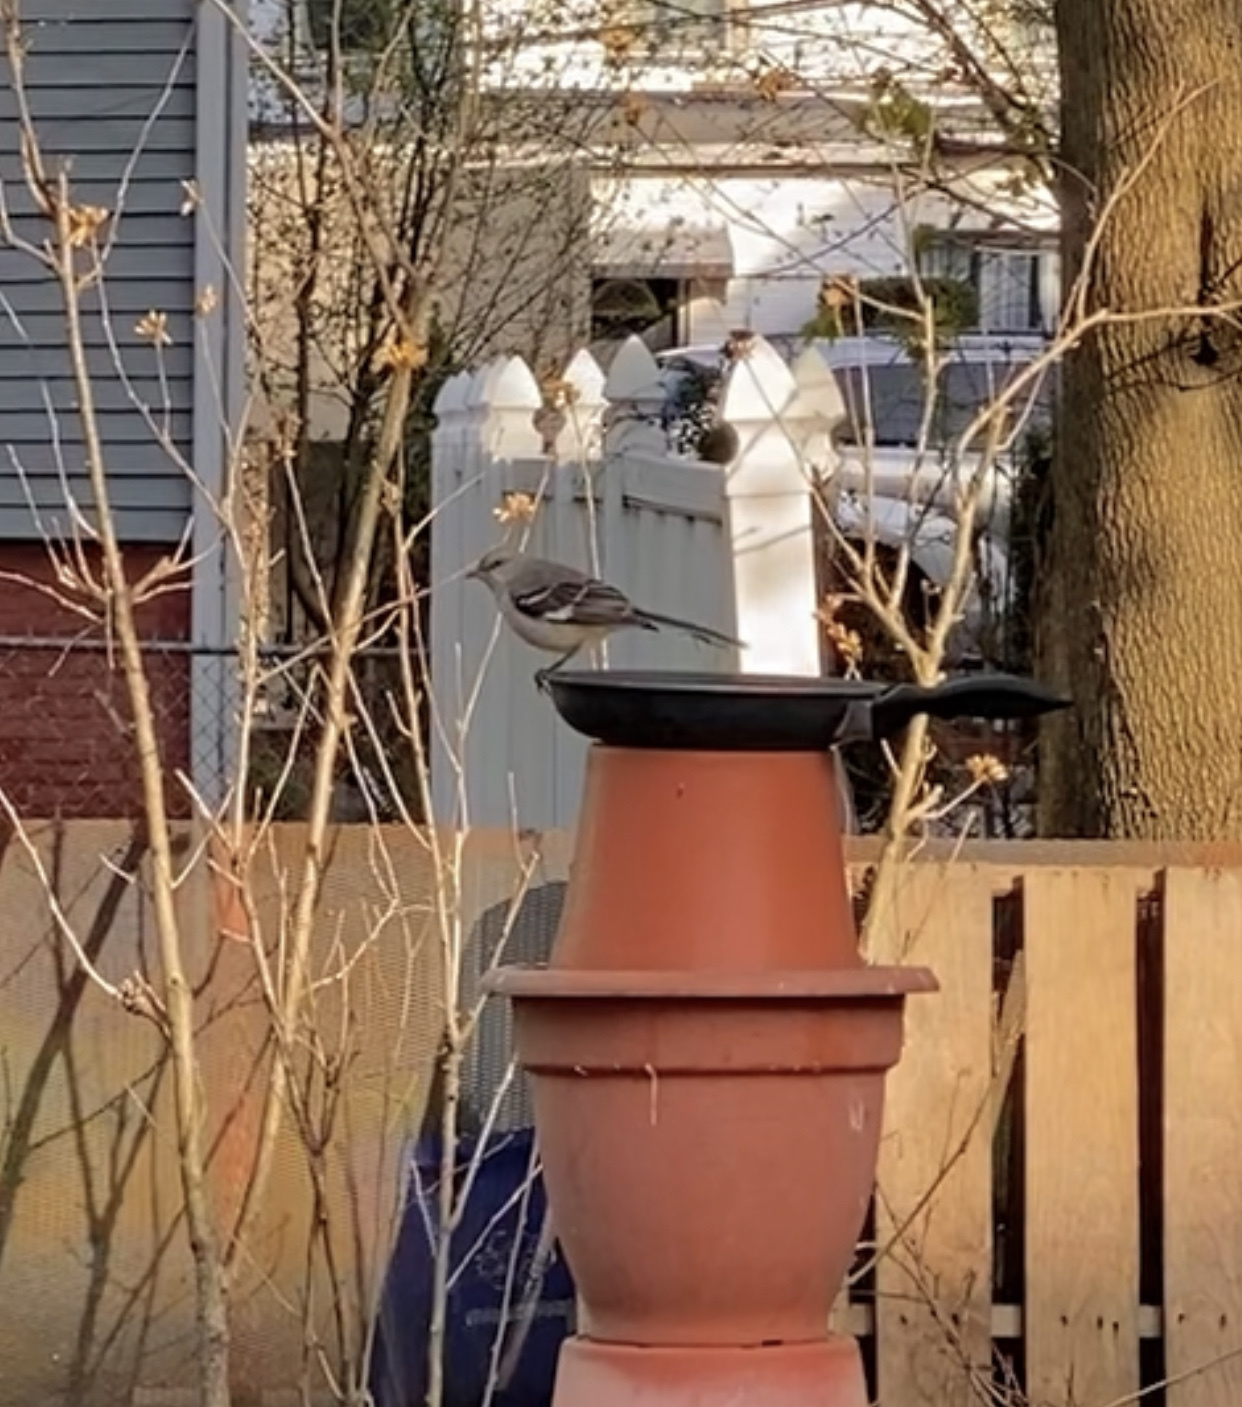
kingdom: Animalia
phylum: Chordata
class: Aves
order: Passeriformes
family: Mimidae
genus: Mimus
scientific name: Mimus polyglottos
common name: Northern mockingbird
